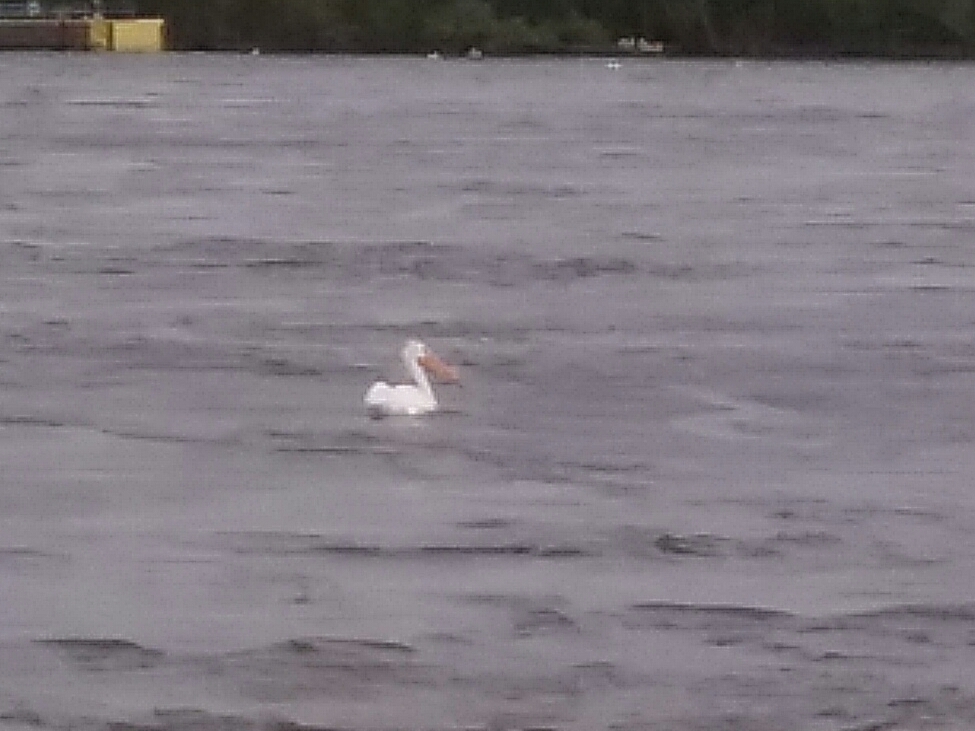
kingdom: Animalia
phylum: Chordata
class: Aves
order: Pelecaniformes
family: Pelecanidae
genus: Pelecanus
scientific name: Pelecanus erythrorhynchos
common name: American white pelican
